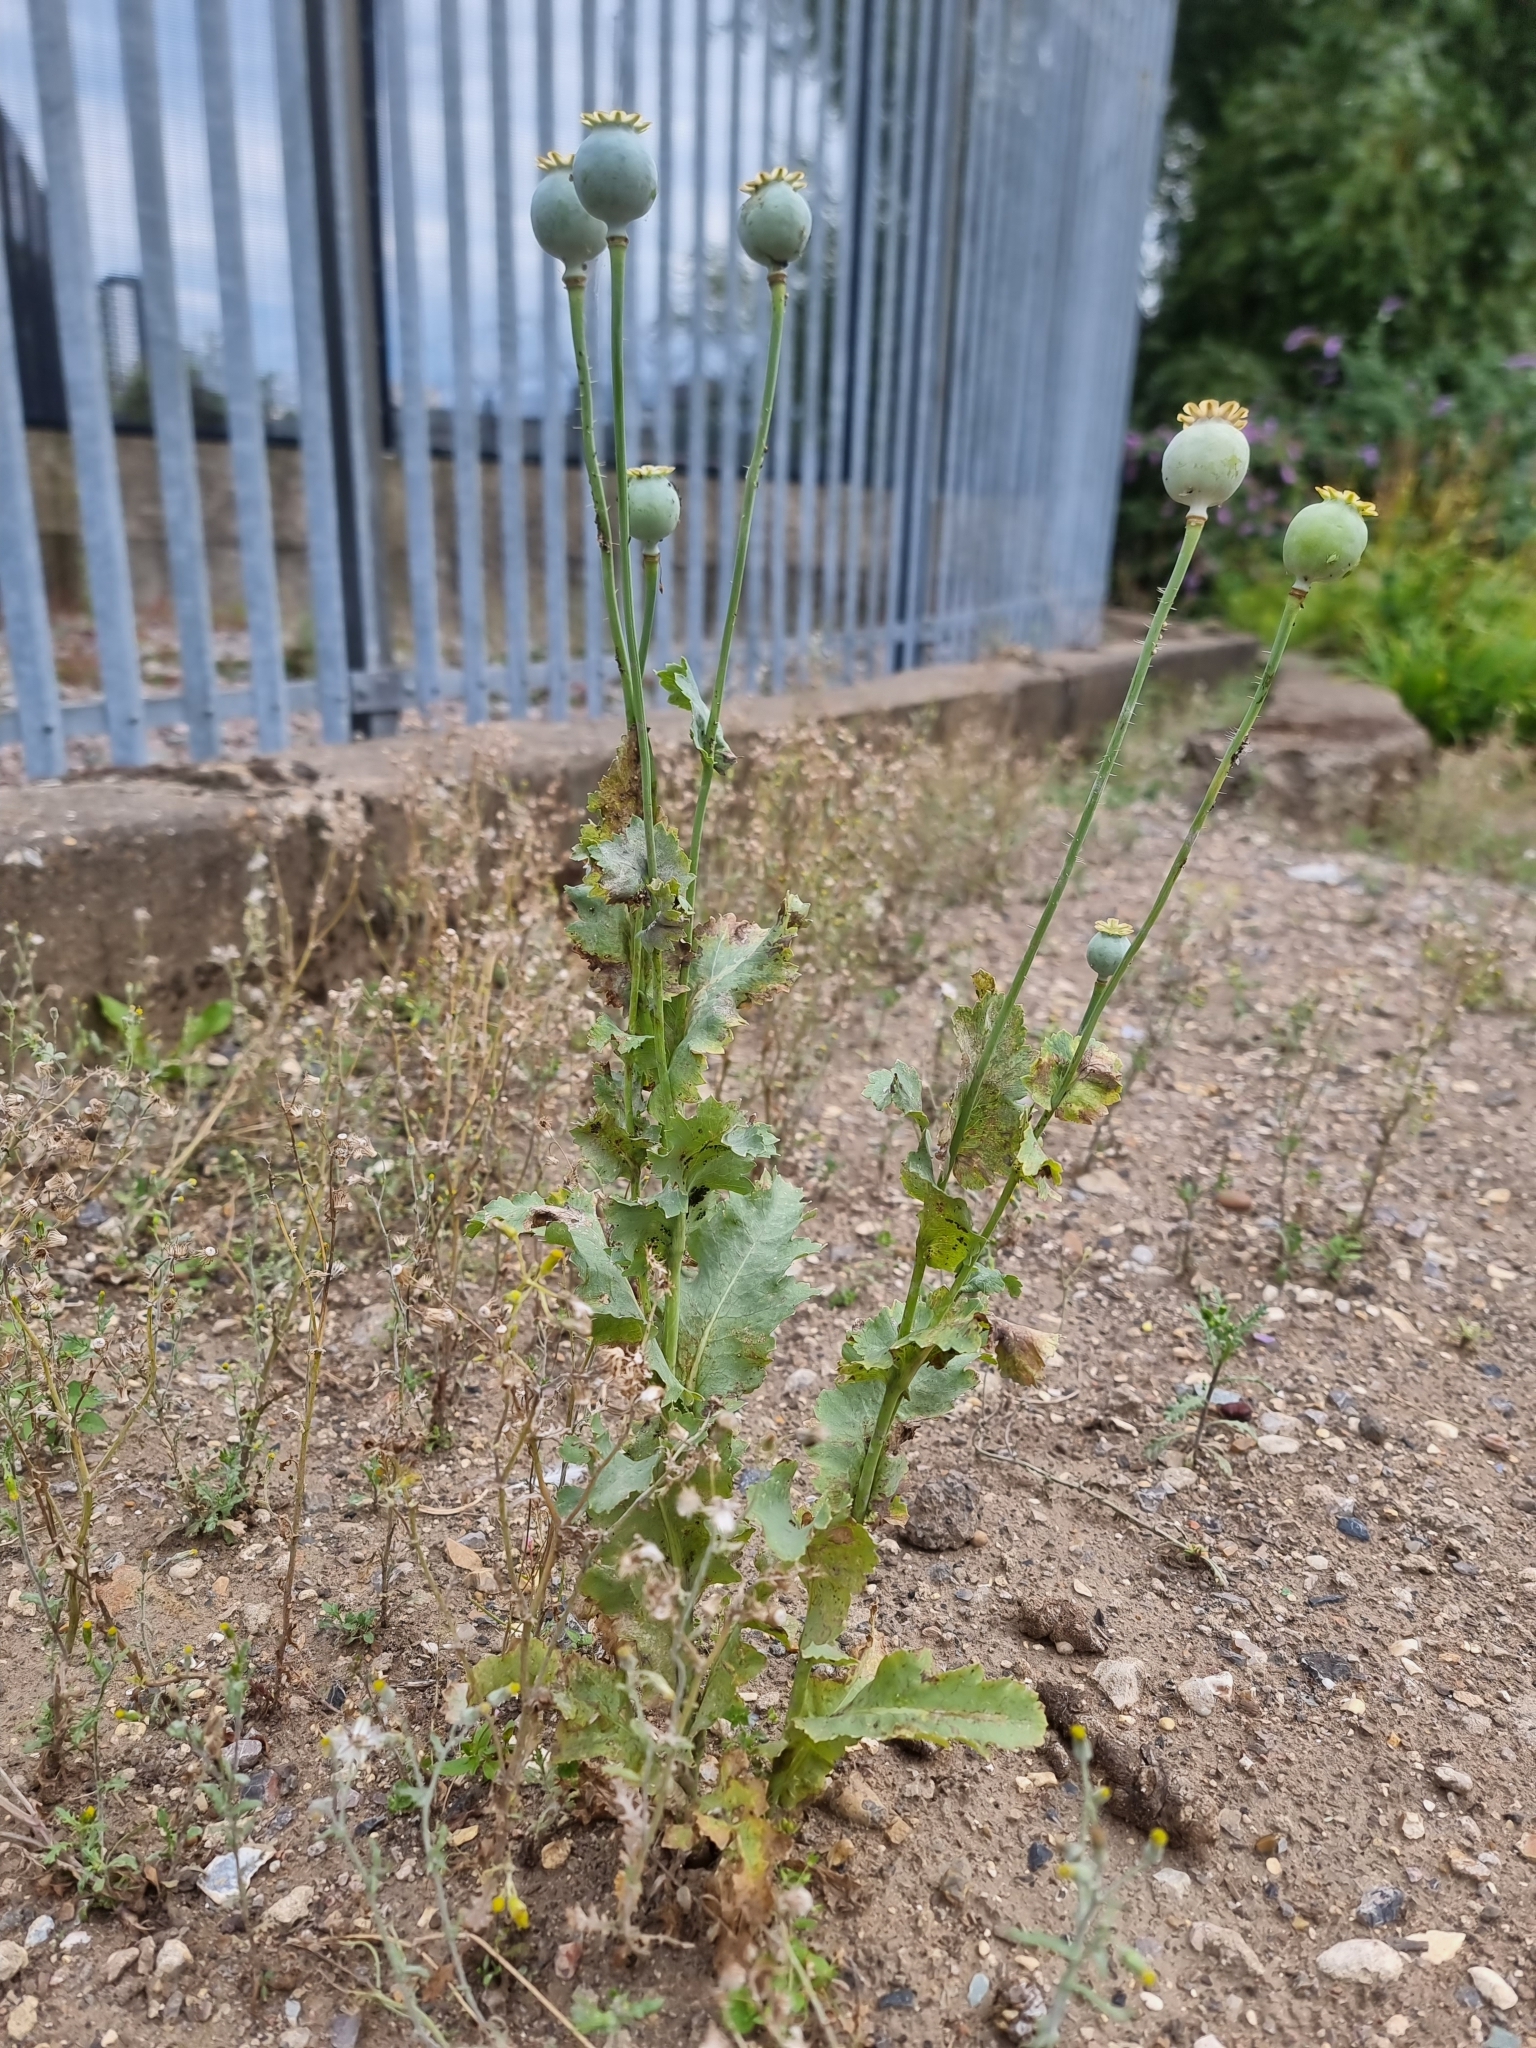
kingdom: Plantae
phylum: Tracheophyta
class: Magnoliopsida
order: Ranunculales
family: Papaveraceae
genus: Papaver
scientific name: Papaver somniferum
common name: Opium poppy
